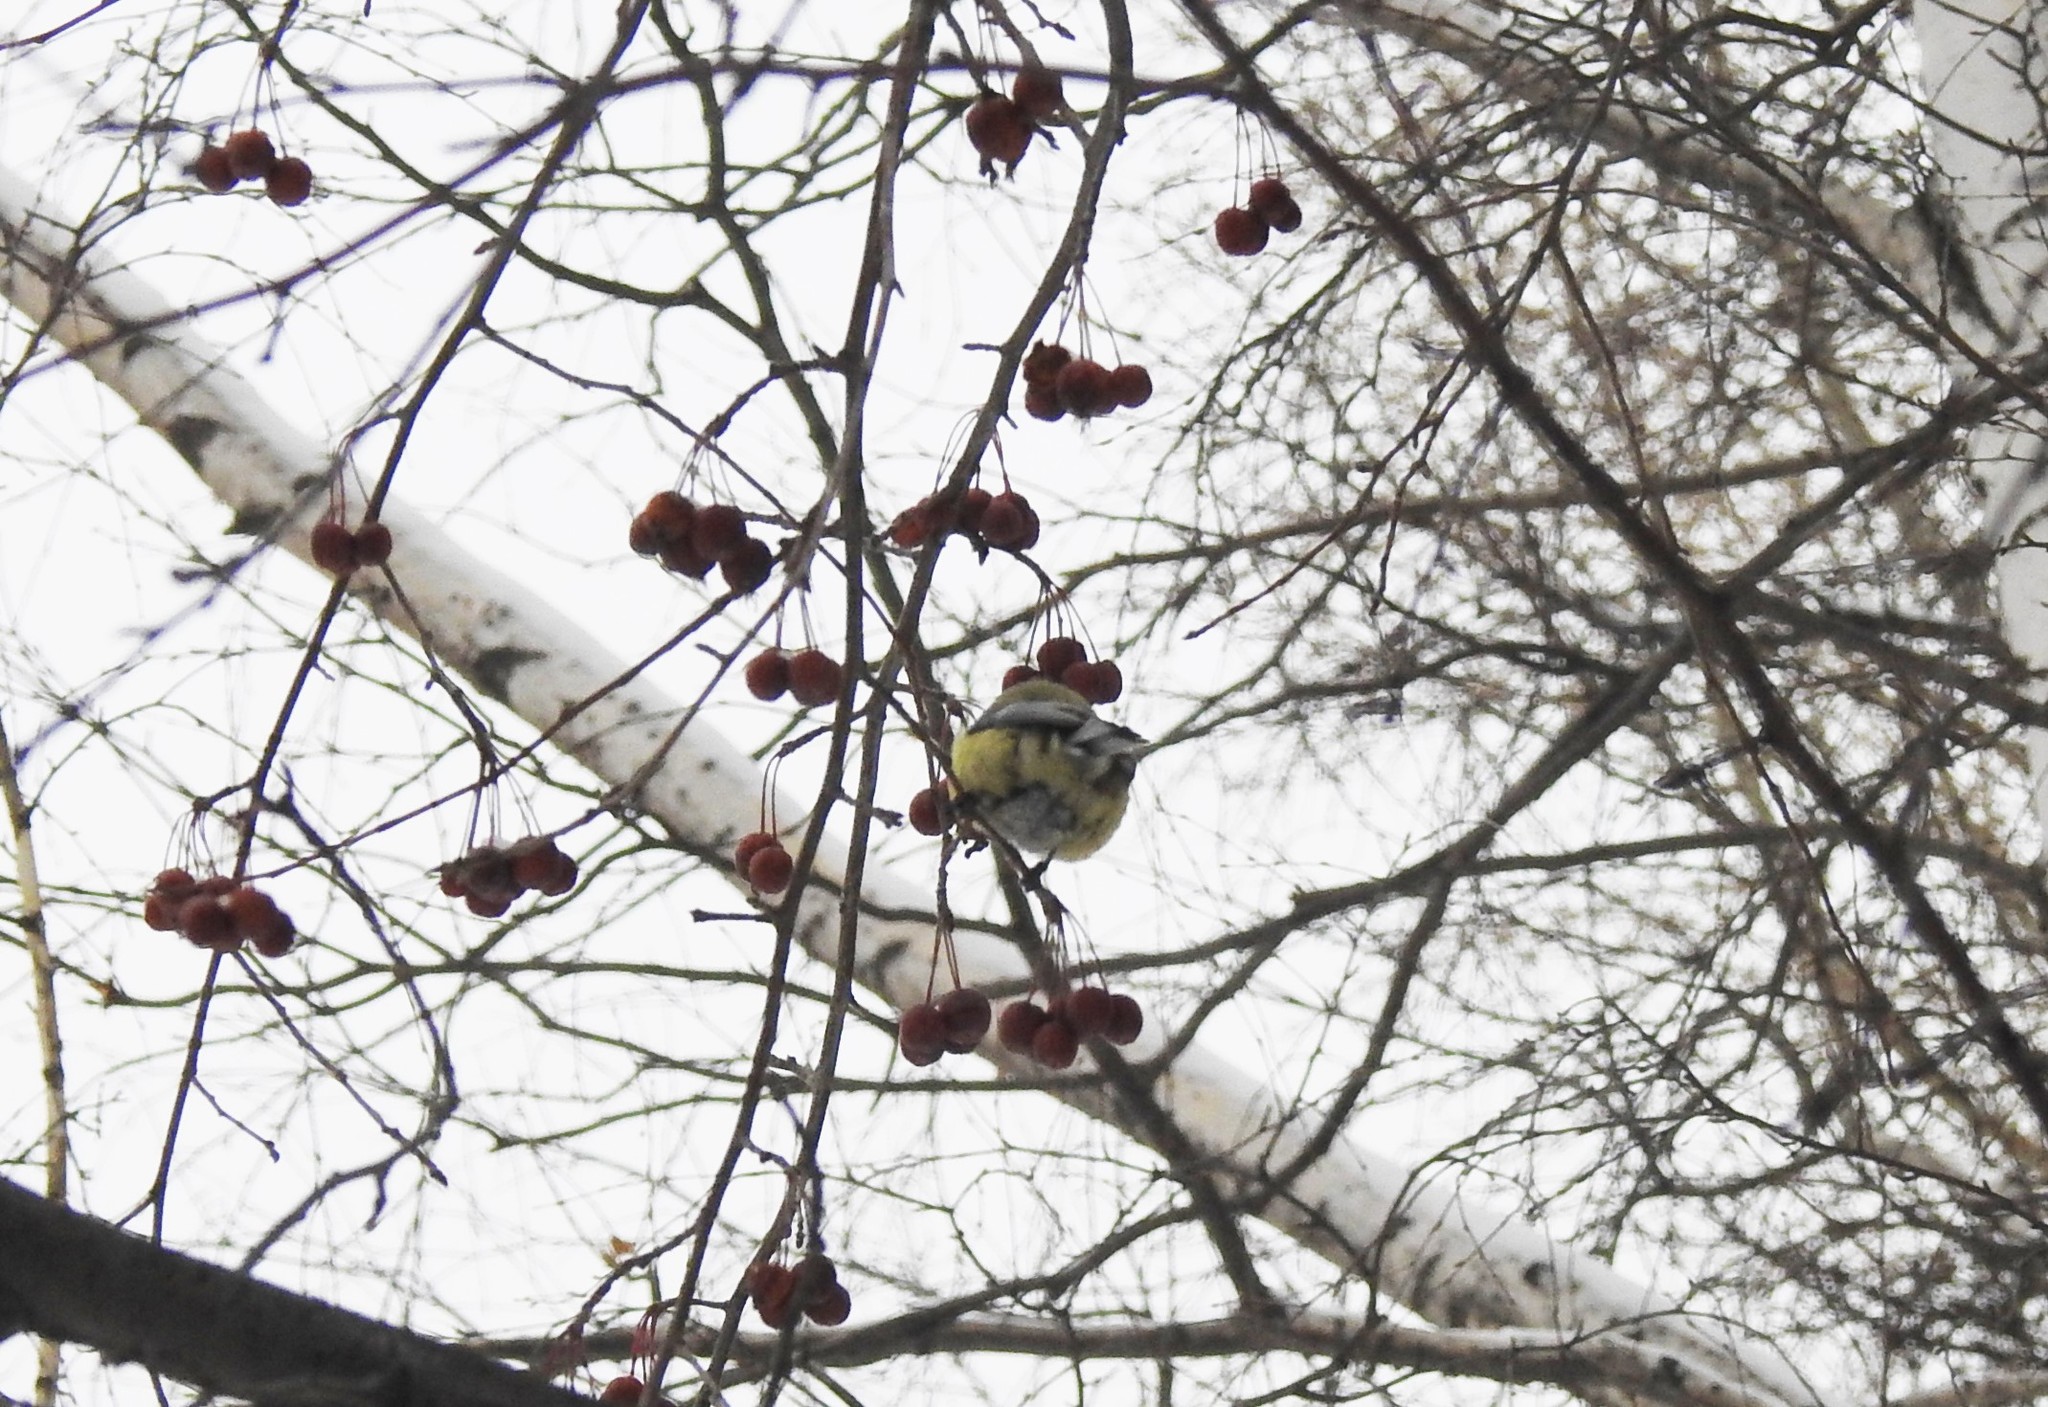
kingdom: Animalia
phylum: Chordata
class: Aves
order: Passeriformes
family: Paridae
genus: Cyanistes
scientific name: Cyanistes caeruleus
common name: Eurasian blue tit
